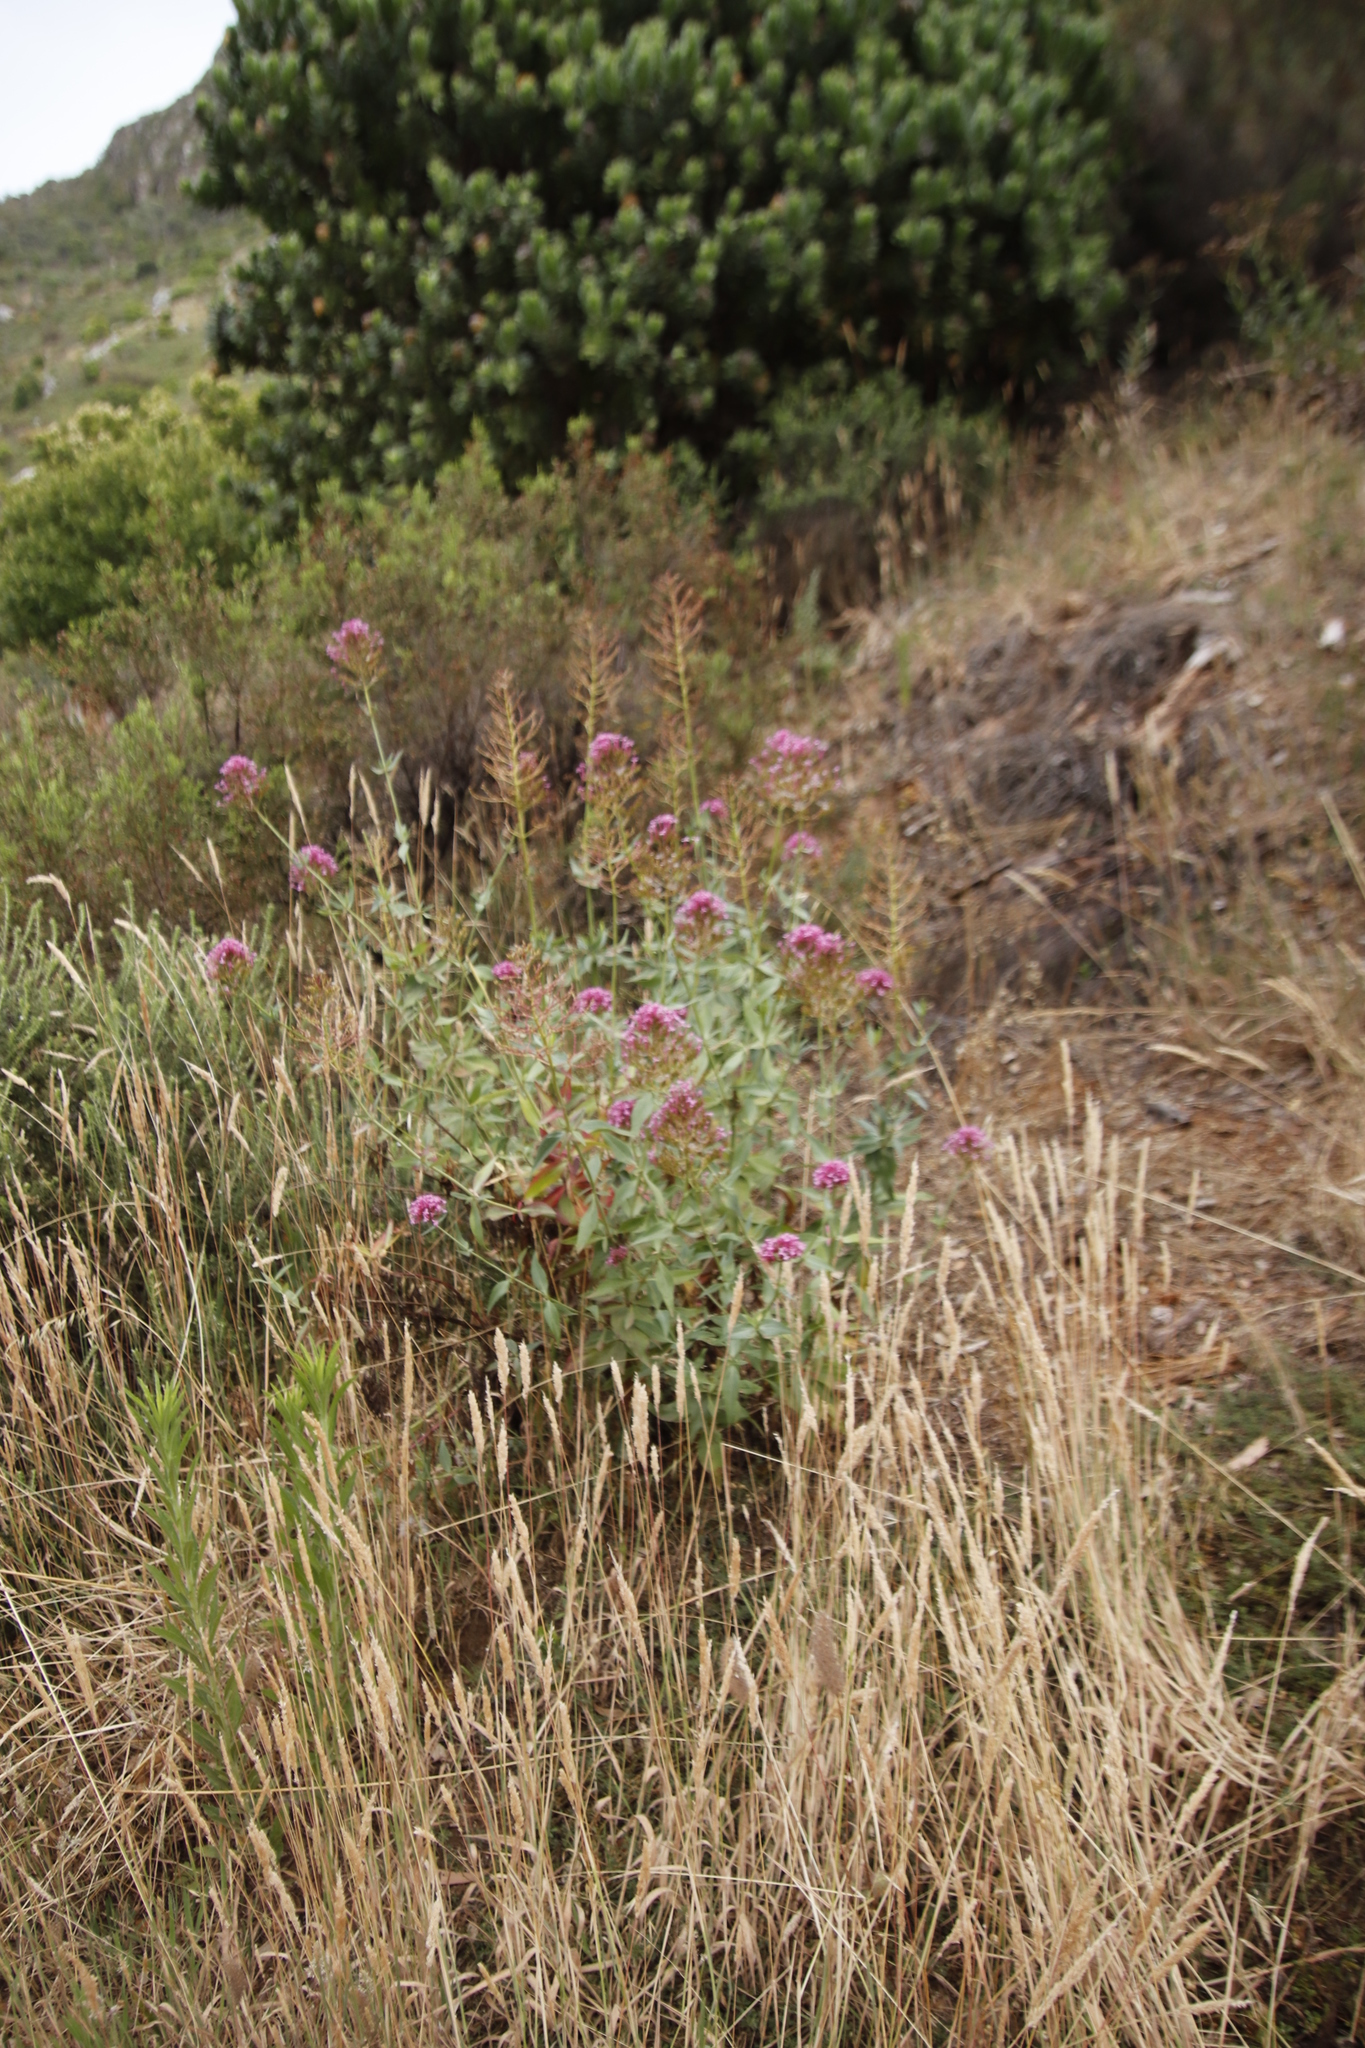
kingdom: Plantae
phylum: Tracheophyta
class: Magnoliopsida
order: Dipsacales
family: Caprifoliaceae
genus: Centranthus
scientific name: Centranthus ruber
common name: Red valerian
